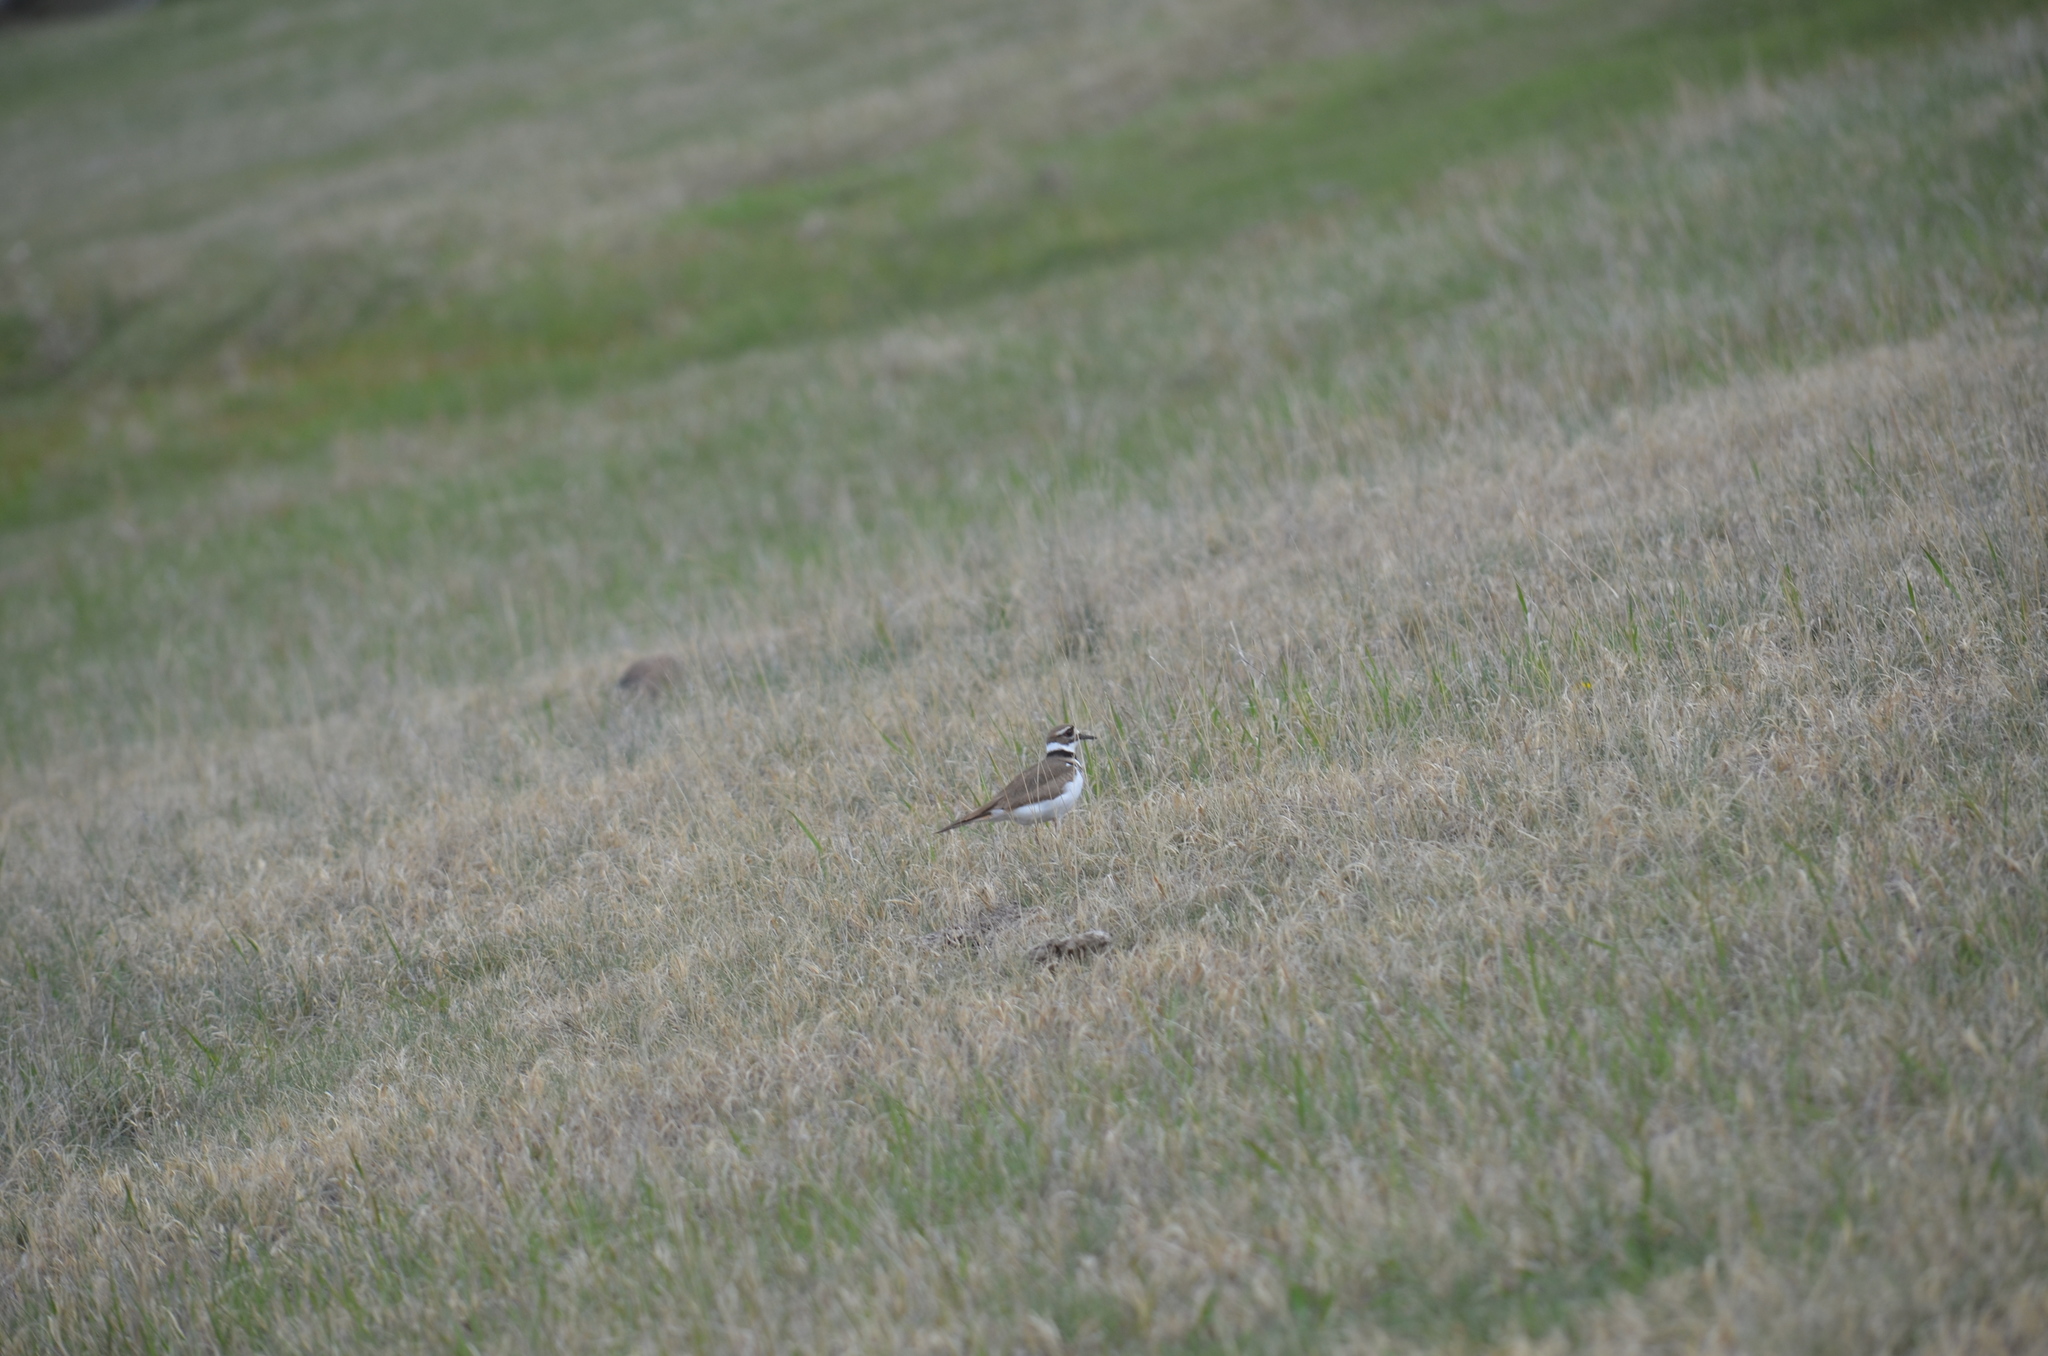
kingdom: Animalia
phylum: Chordata
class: Aves
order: Charadriiformes
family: Charadriidae
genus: Charadrius
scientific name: Charadrius vociferus
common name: Killdeer
